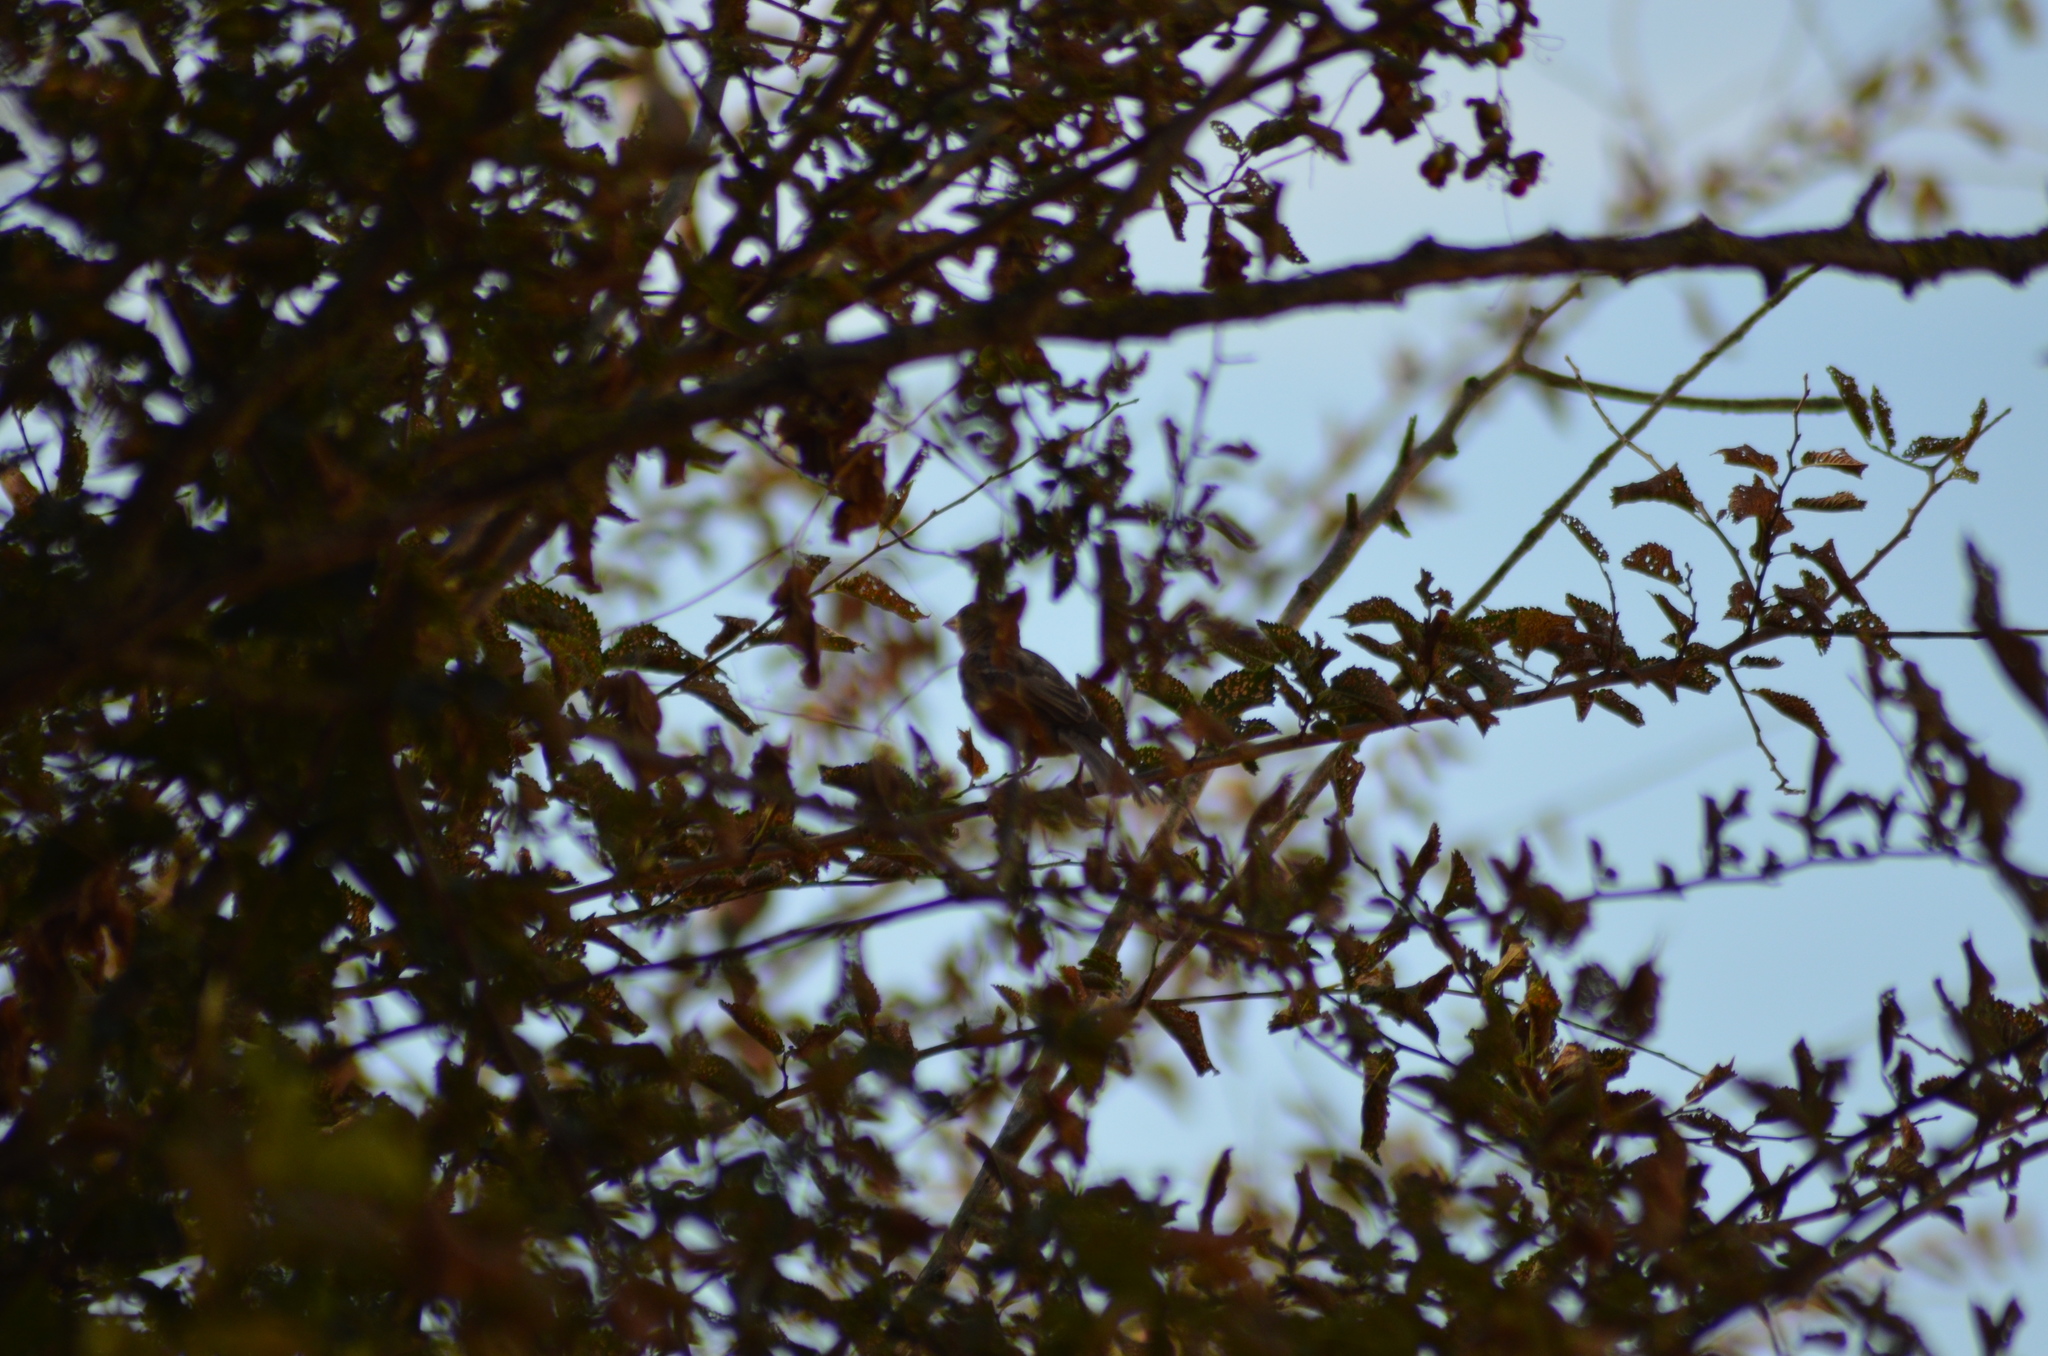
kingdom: Animalia
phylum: Chordata
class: Aves
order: Passeriformes
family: Passeridae
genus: Passer
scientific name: Passer domesticus
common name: House sparrow
